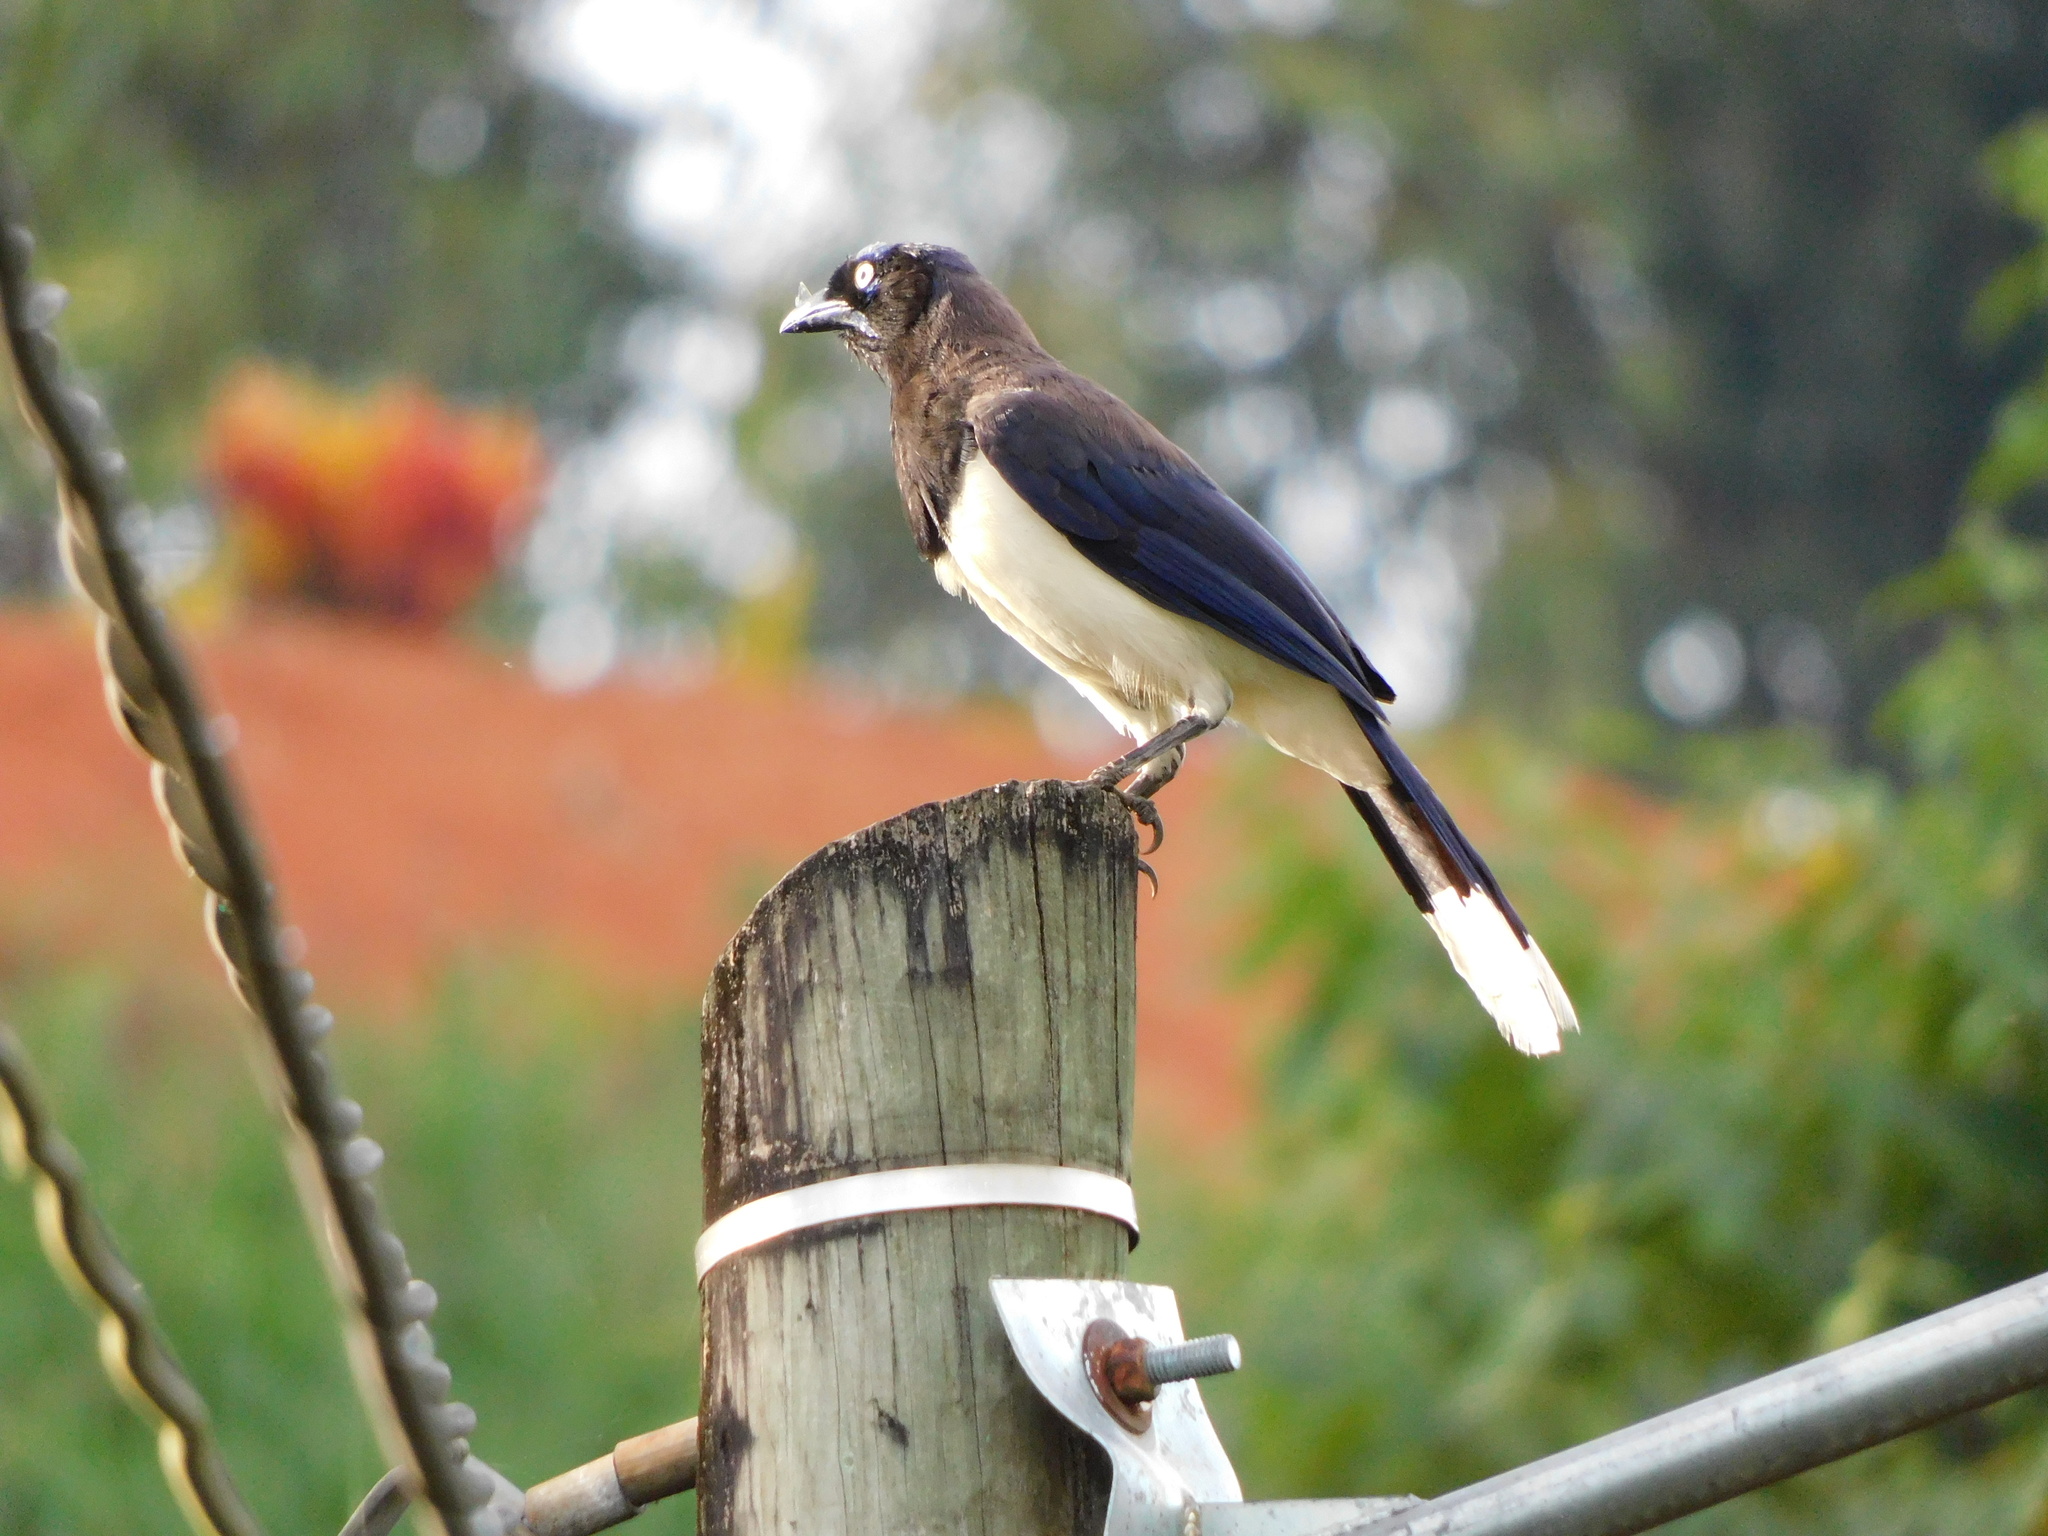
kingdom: Animalia
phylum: Chordata
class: Aves
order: Passeriformes
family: Corvidae
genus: Cyanocorax
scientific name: Cyanocorax affinis
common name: Black-chested jay
